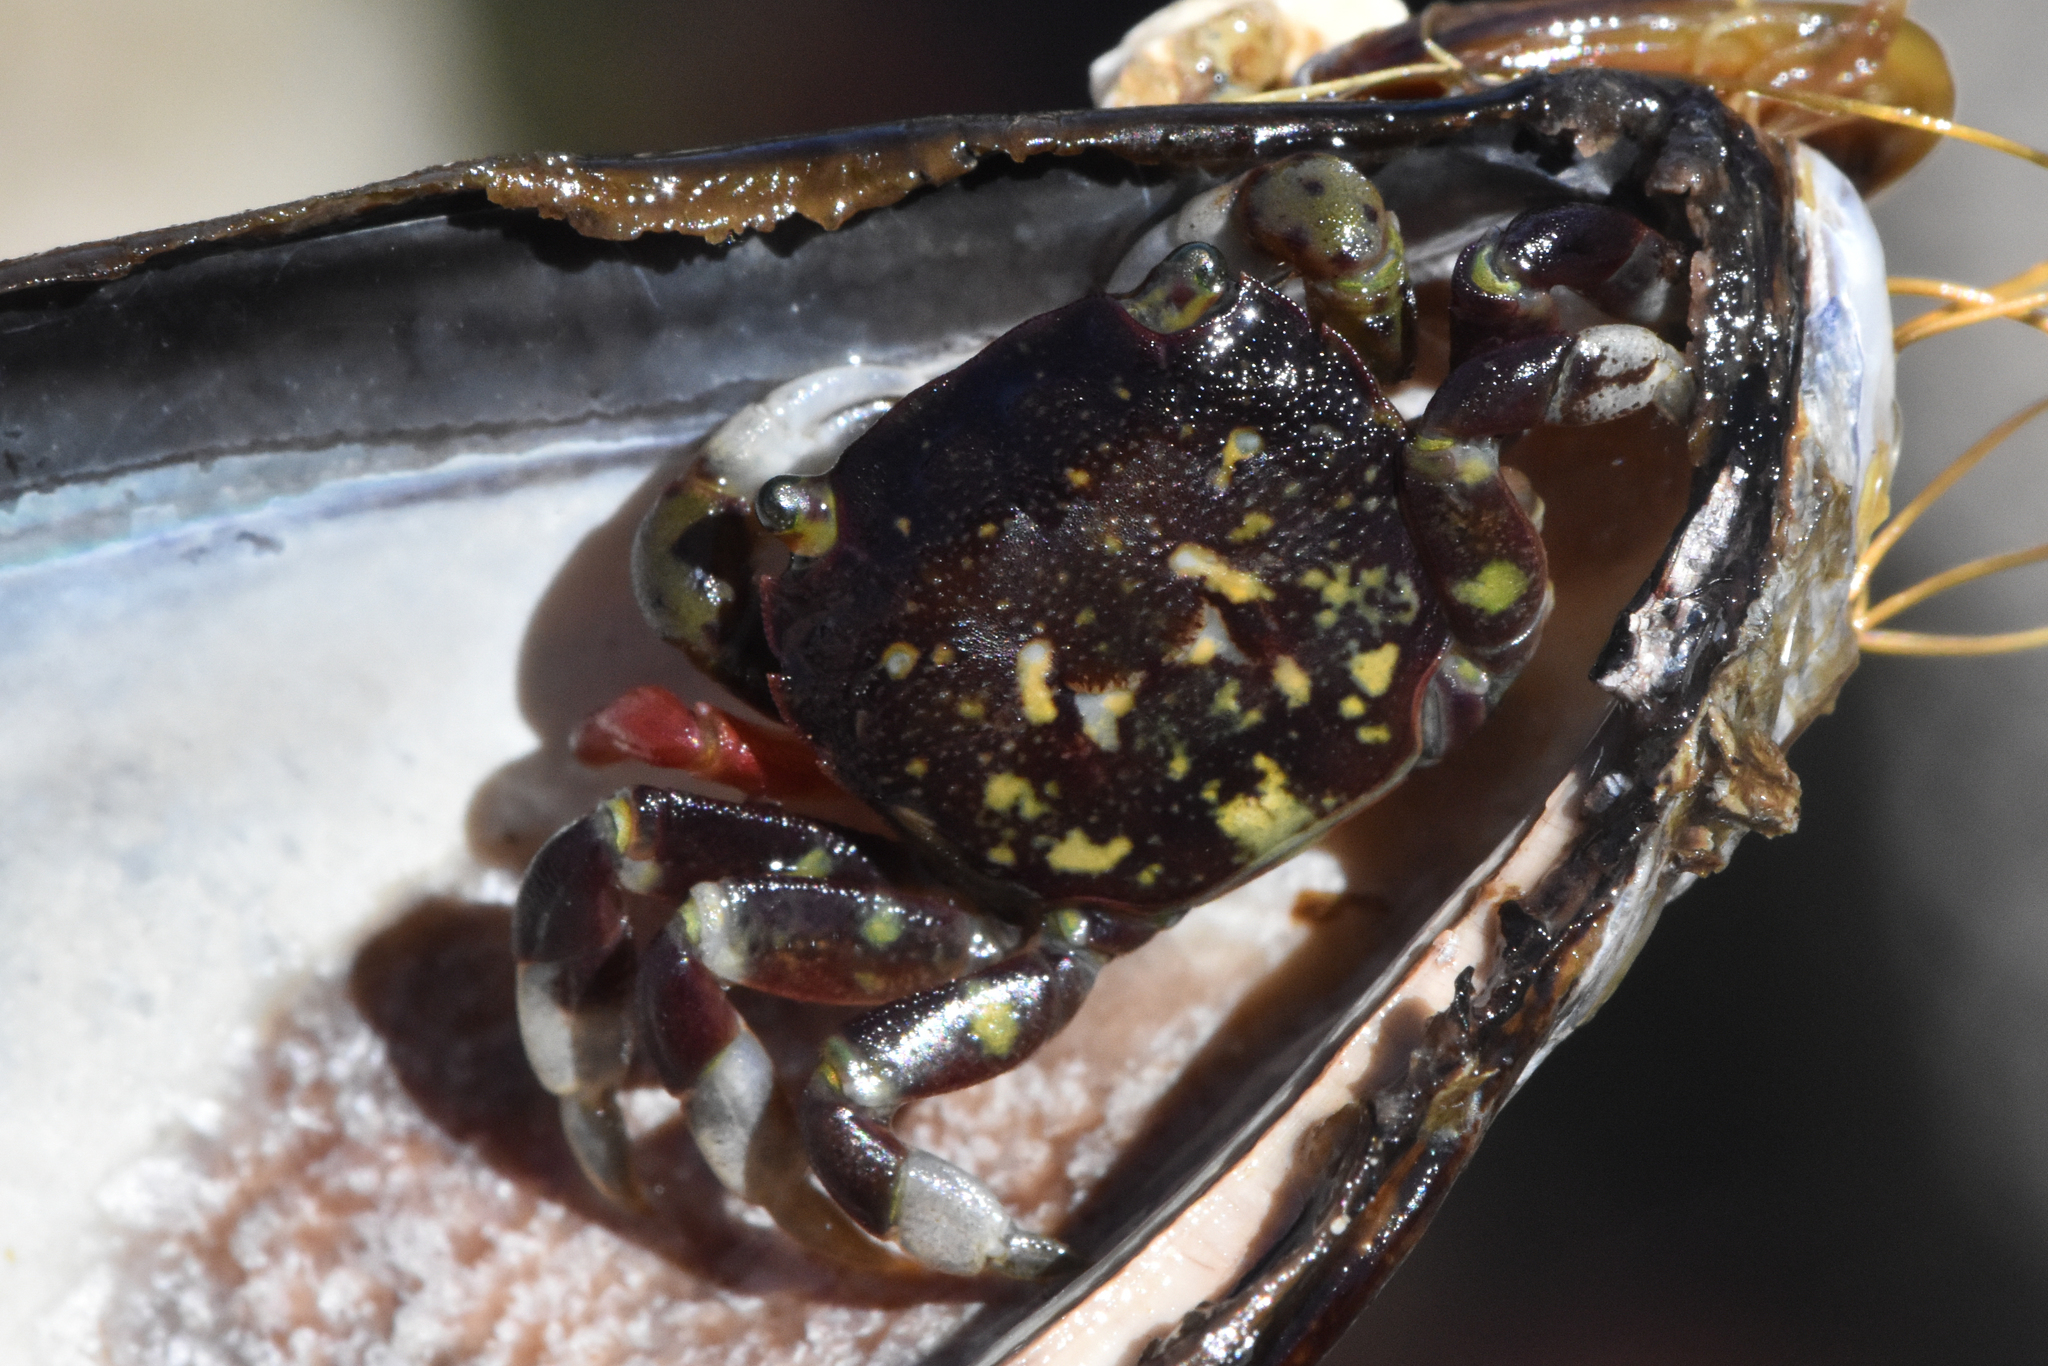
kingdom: Animalia
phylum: Arthropoda
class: Malacostraca
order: Decapoda
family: Varunidae
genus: Hemigrapsus
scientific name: Hemigrapsus nudus
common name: Purple shore crab
